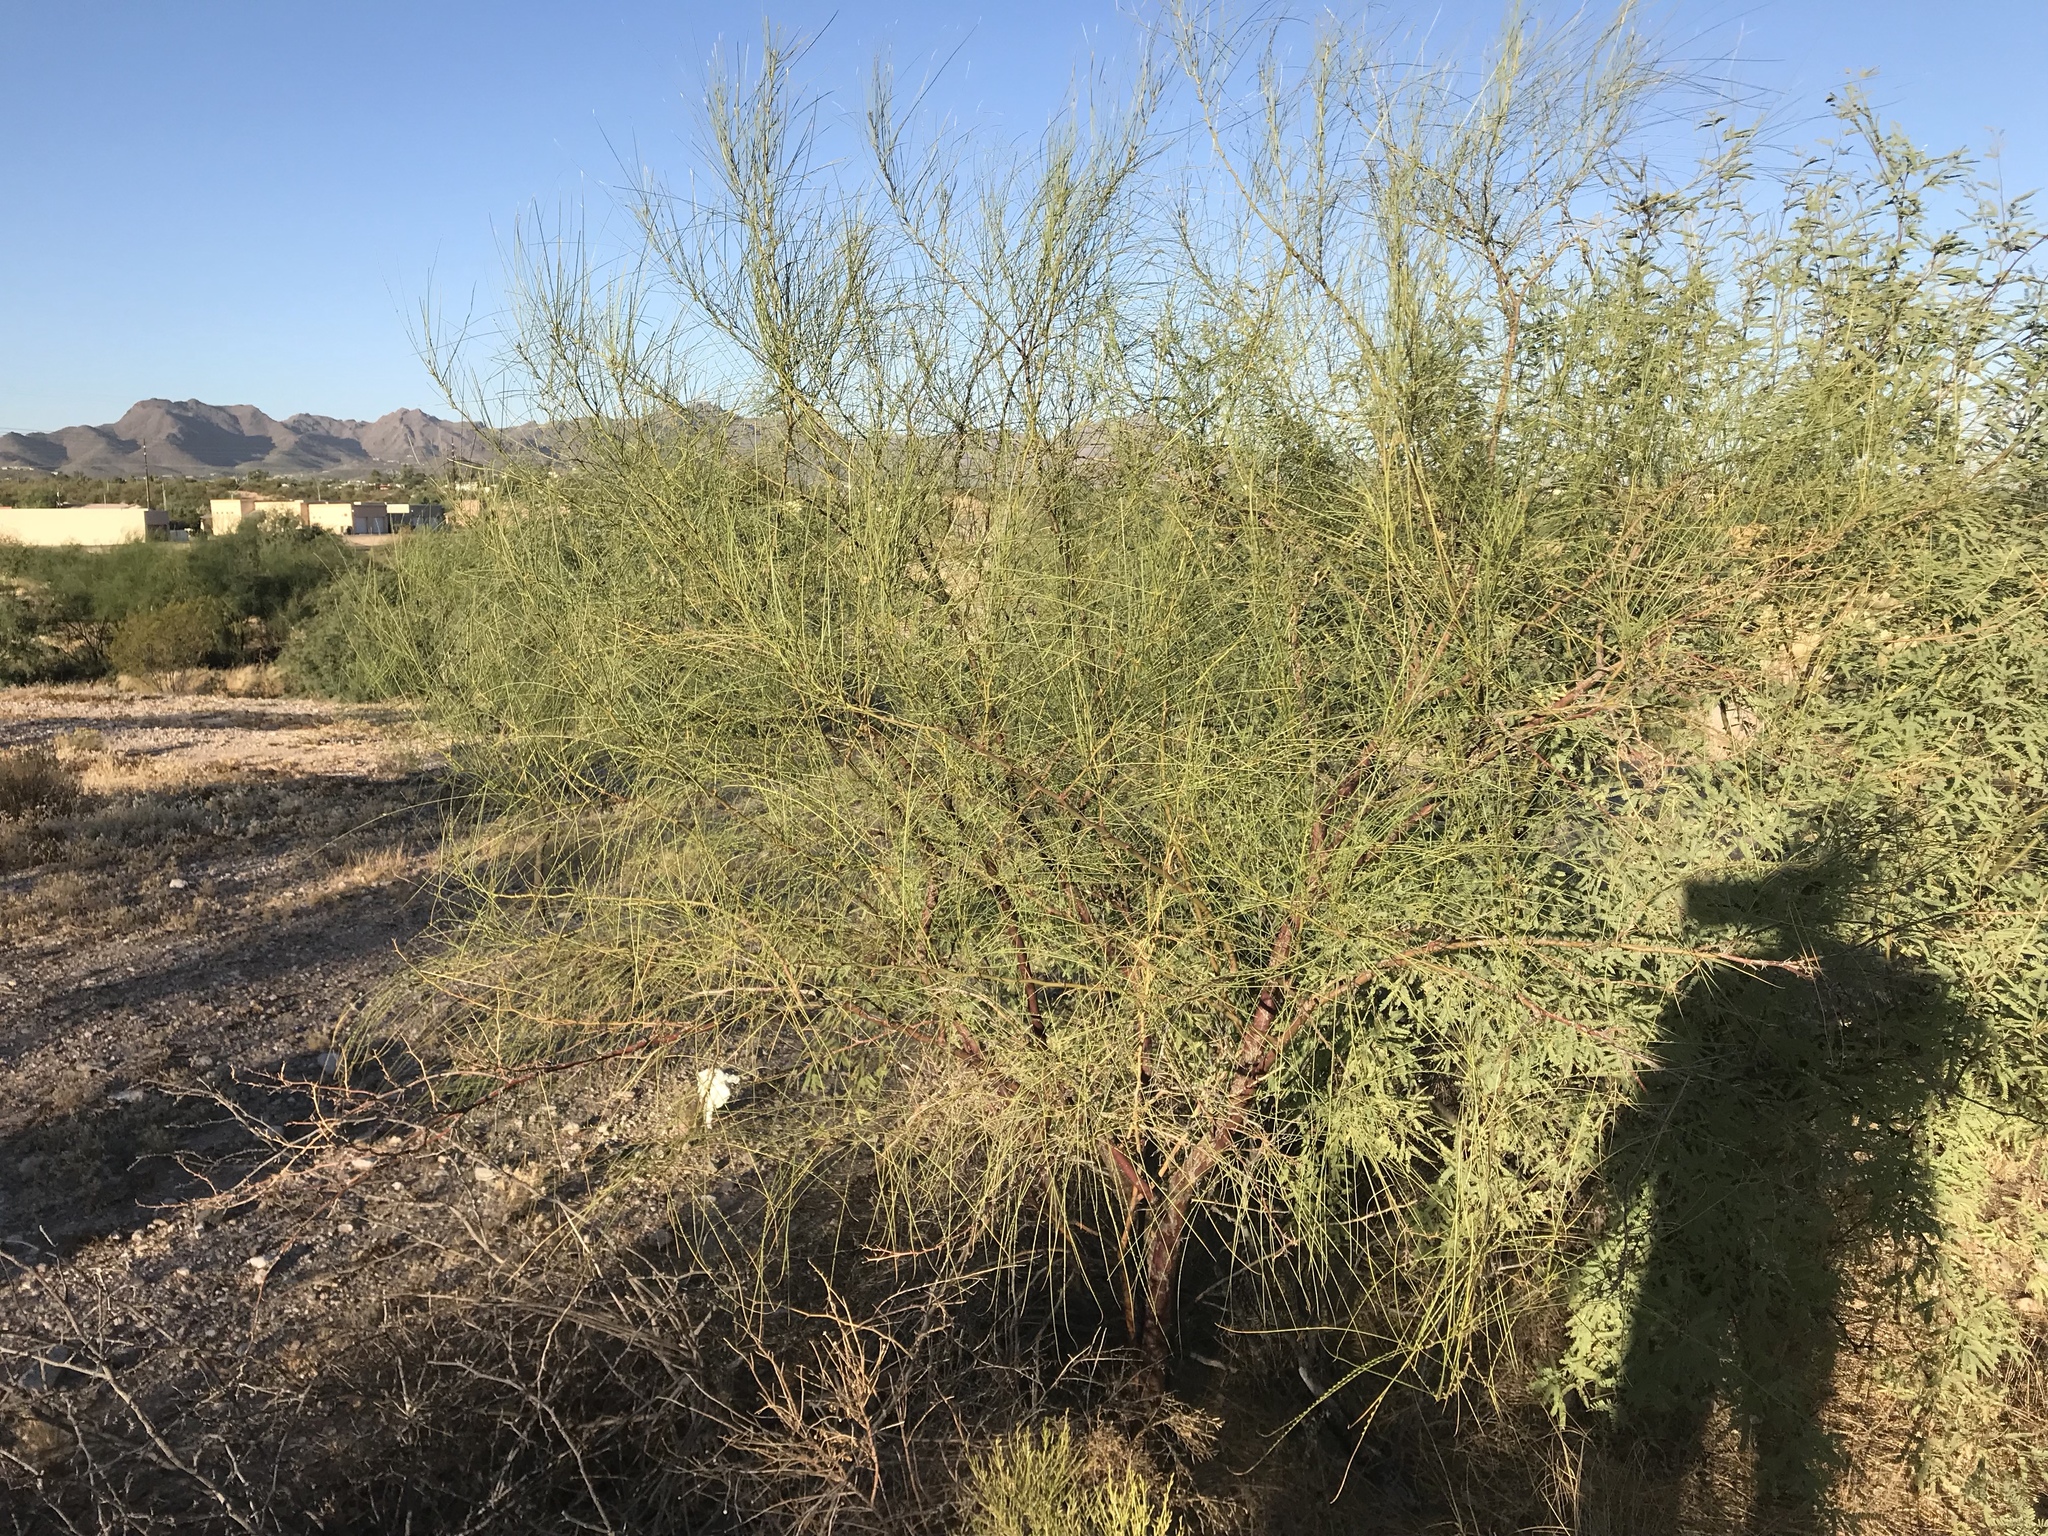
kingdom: Plantae
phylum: Tracheophyta
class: Magnoliopsida
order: Fabales
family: Fabaceae
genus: Parkinsonia
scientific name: Parkinsonia aculeata
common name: Jerusalem thorn
